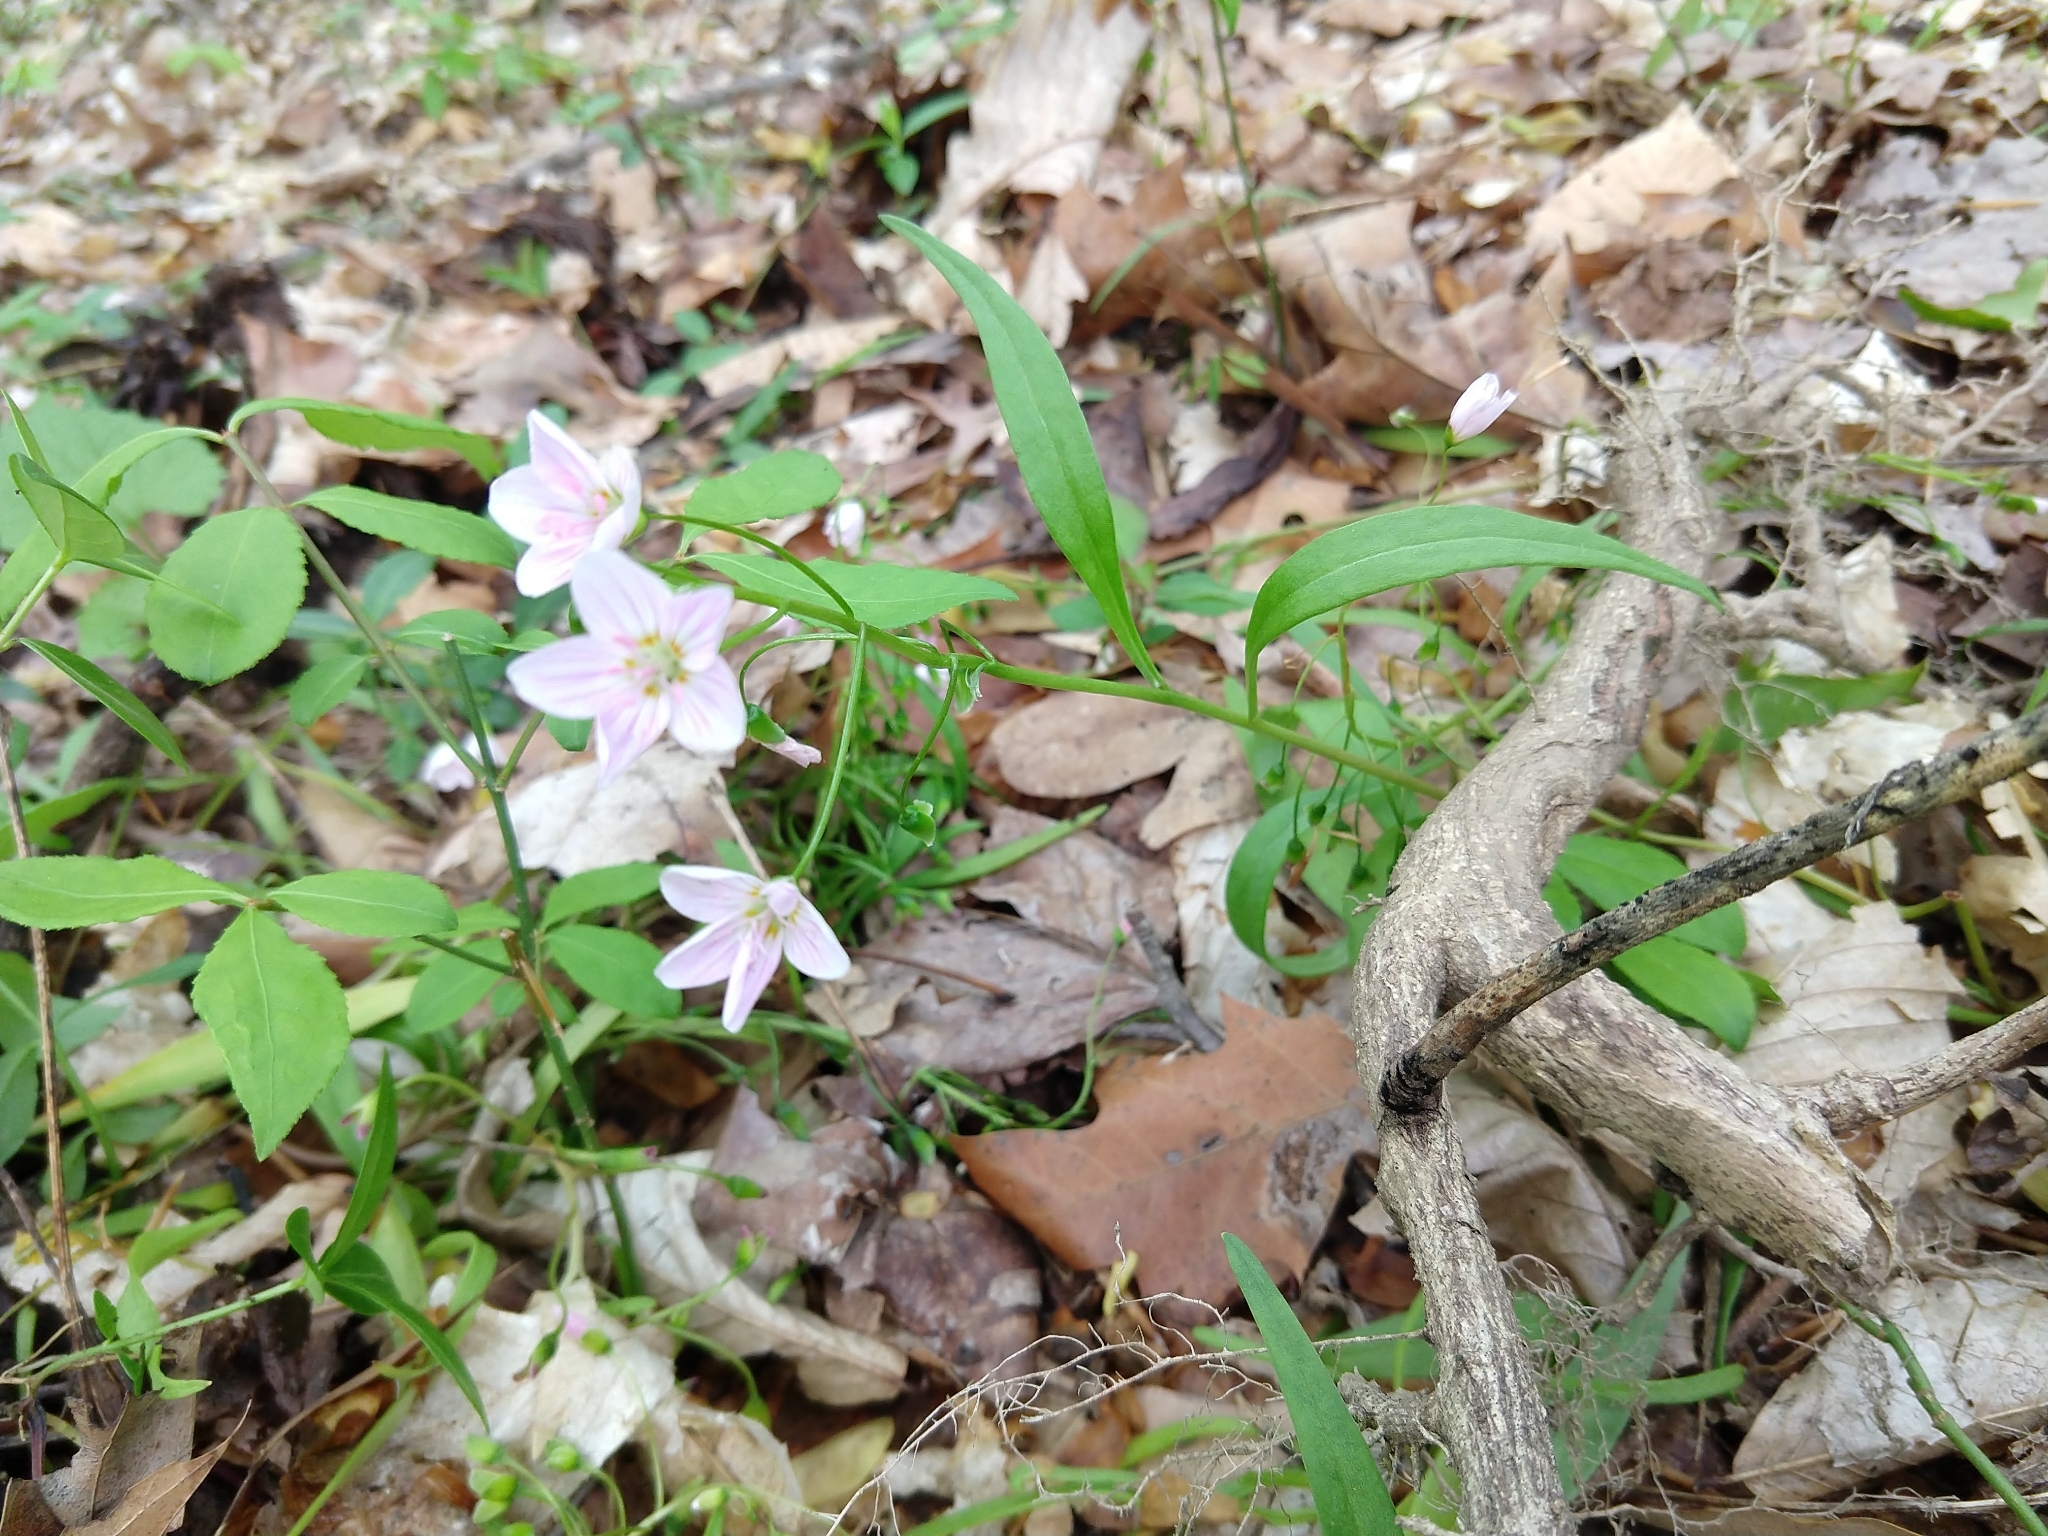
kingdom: Plantae
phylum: Tracheophyta
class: Magnoliopsida
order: Caryophyllales
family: Montiaceae
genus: Claytonia
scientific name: Claytonia virginica
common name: Virginia springbeauty
